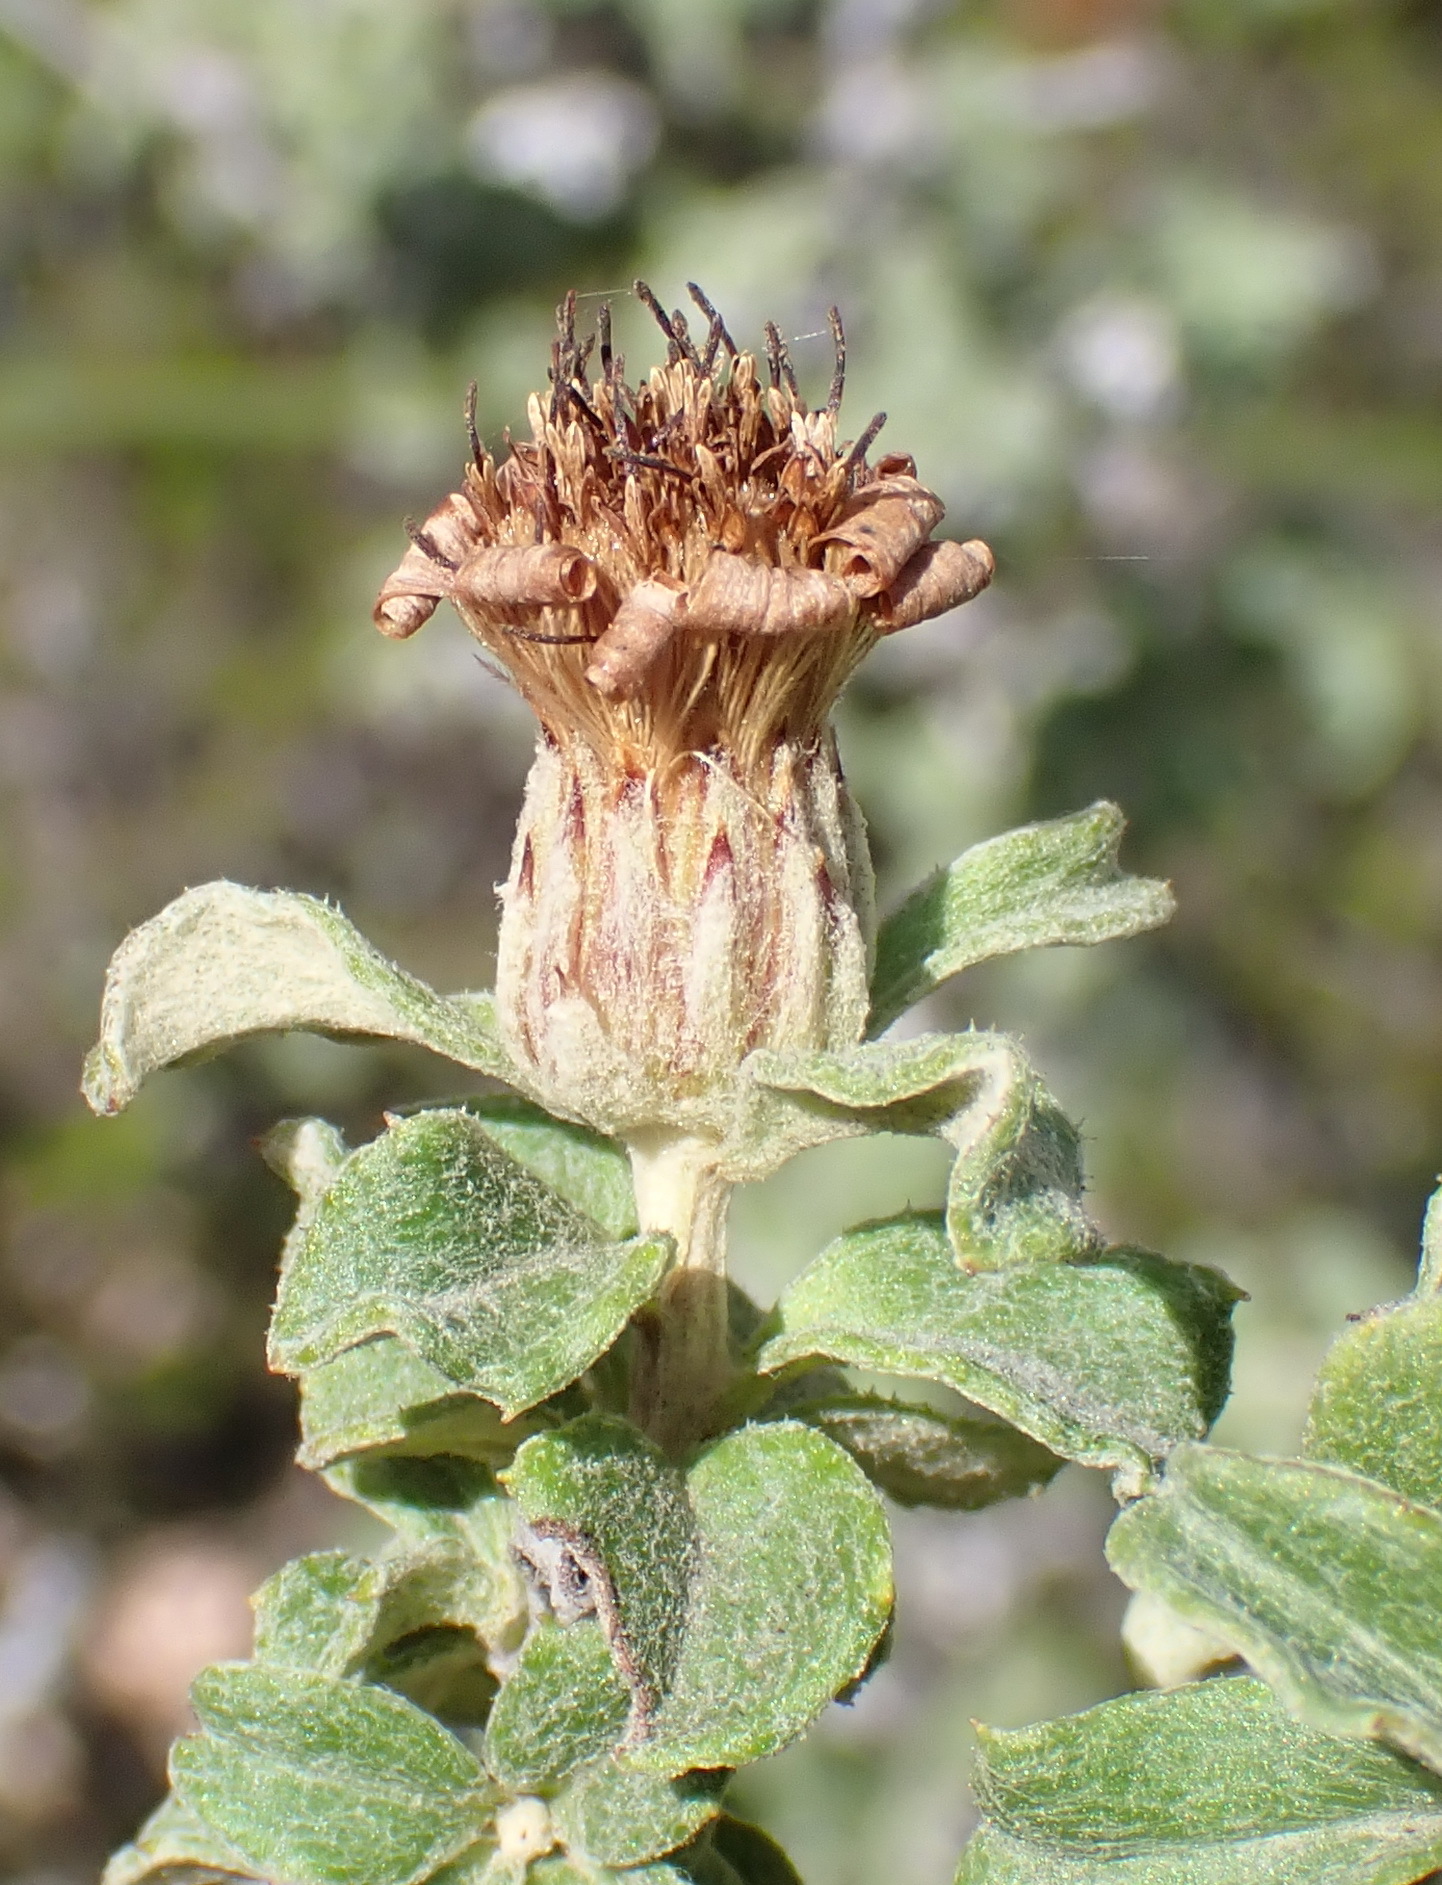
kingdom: Plantae
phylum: Tracheophyta
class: Magnoliopsida
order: Asterales
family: Asteraceae
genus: Printzia
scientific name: Printzia polifolia
